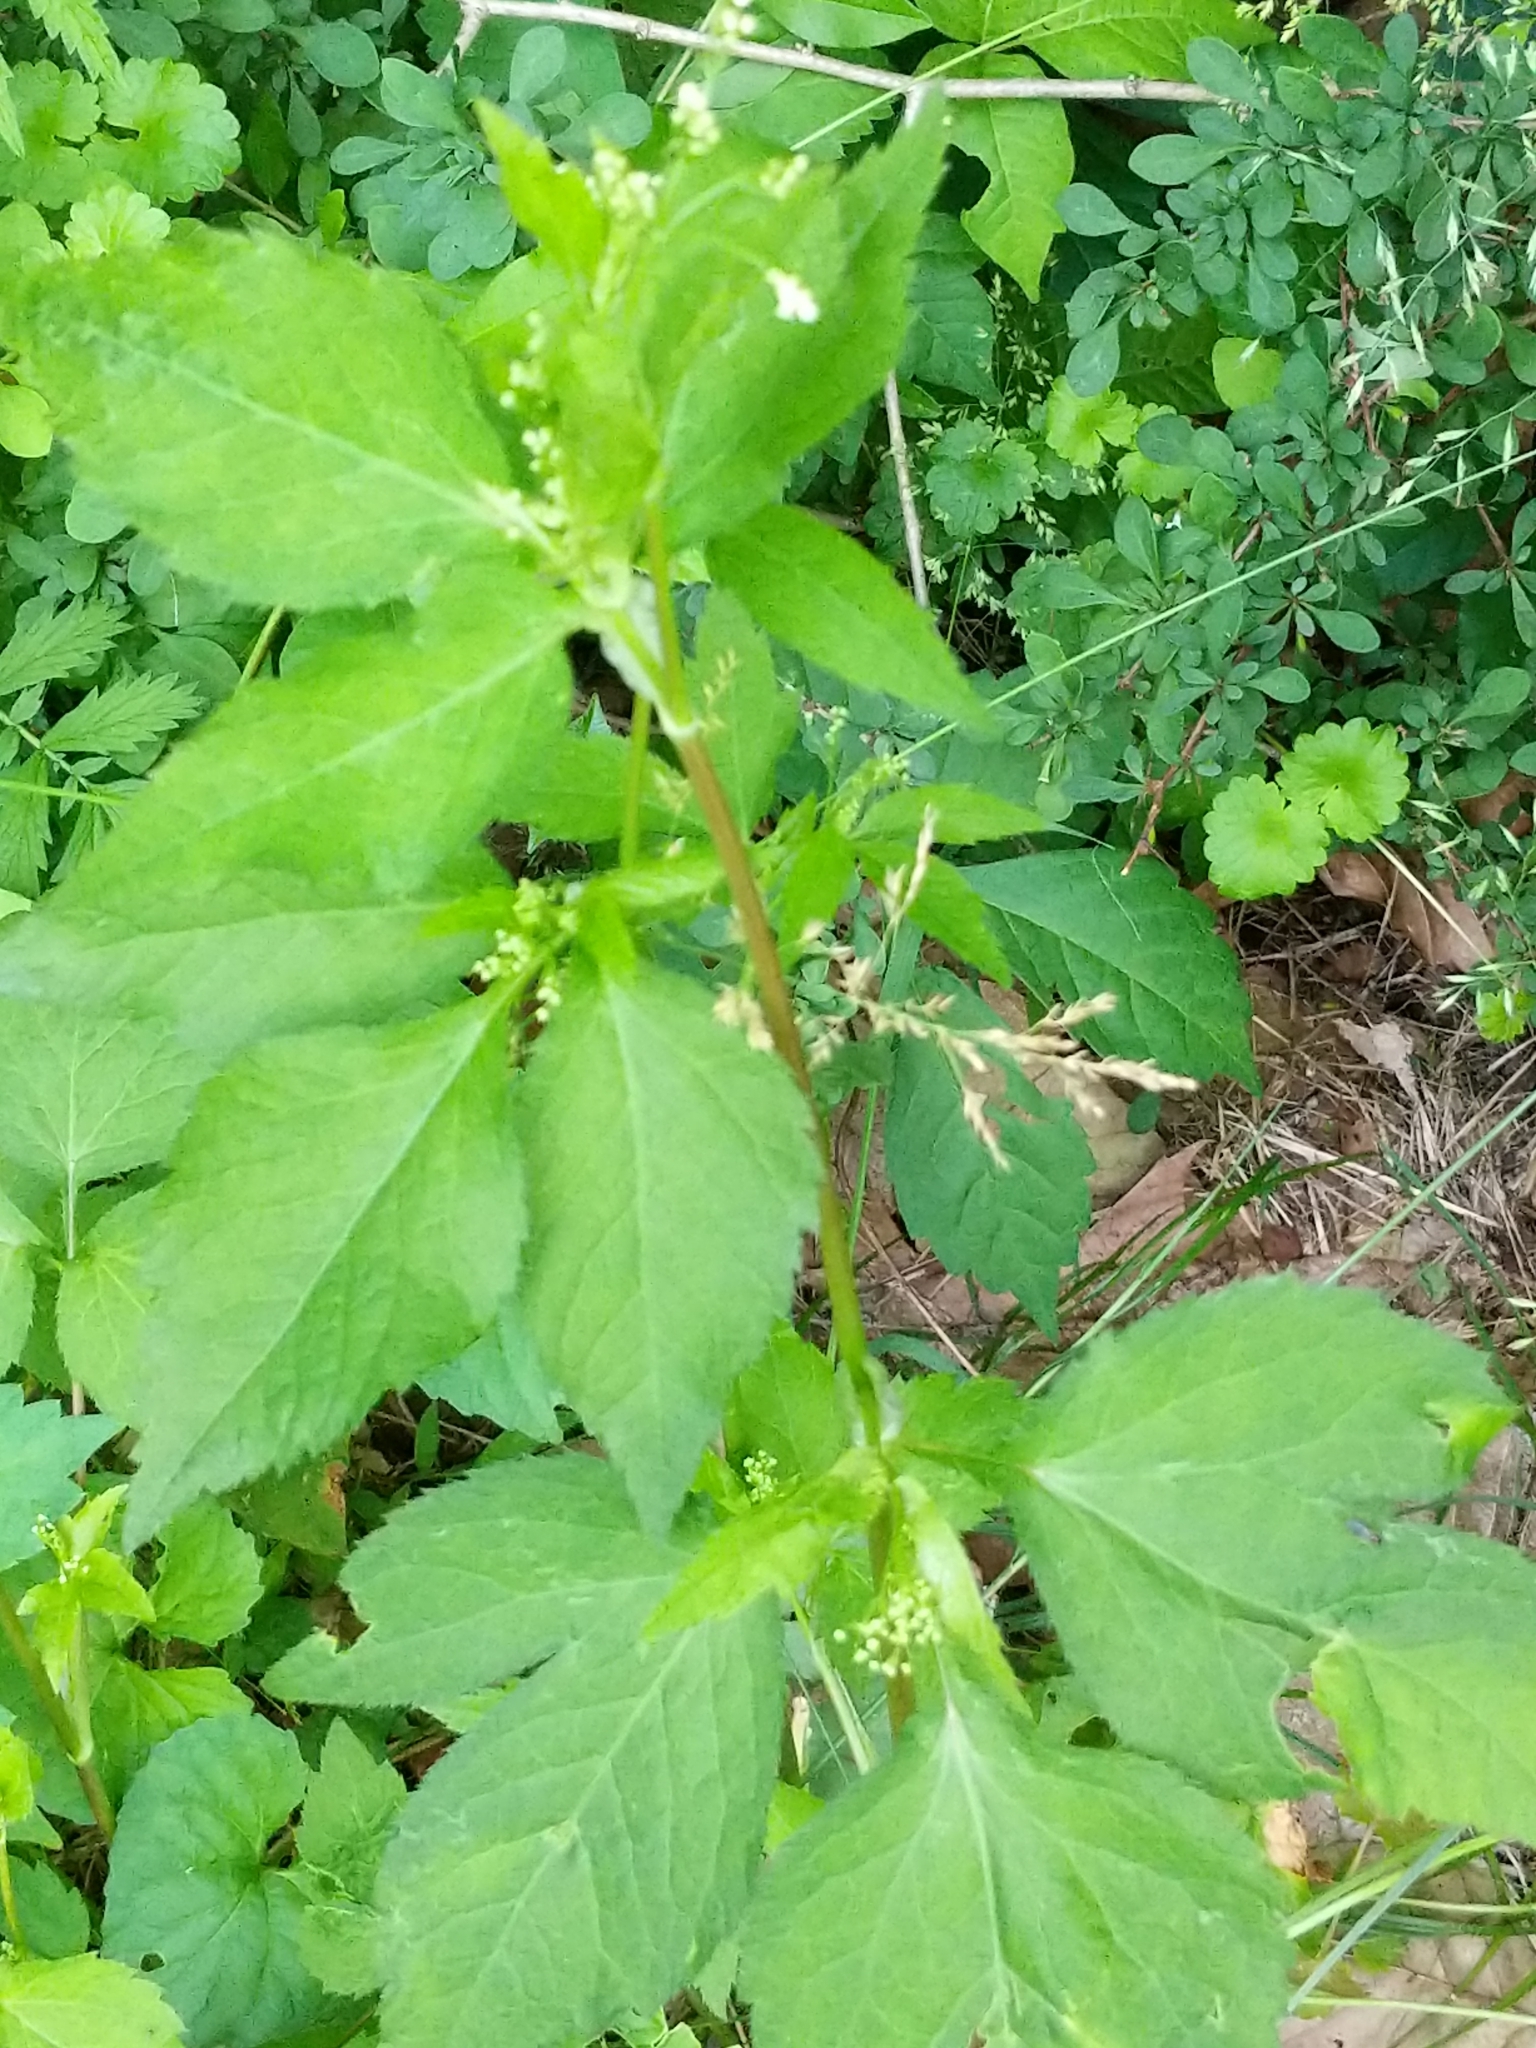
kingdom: Plantae
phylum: Tracheophyta
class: Magnoliopsida
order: Apiales
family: Apiaceae
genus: Cryptotaenia
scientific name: Cryptotaenia canadensis
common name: Honewort
